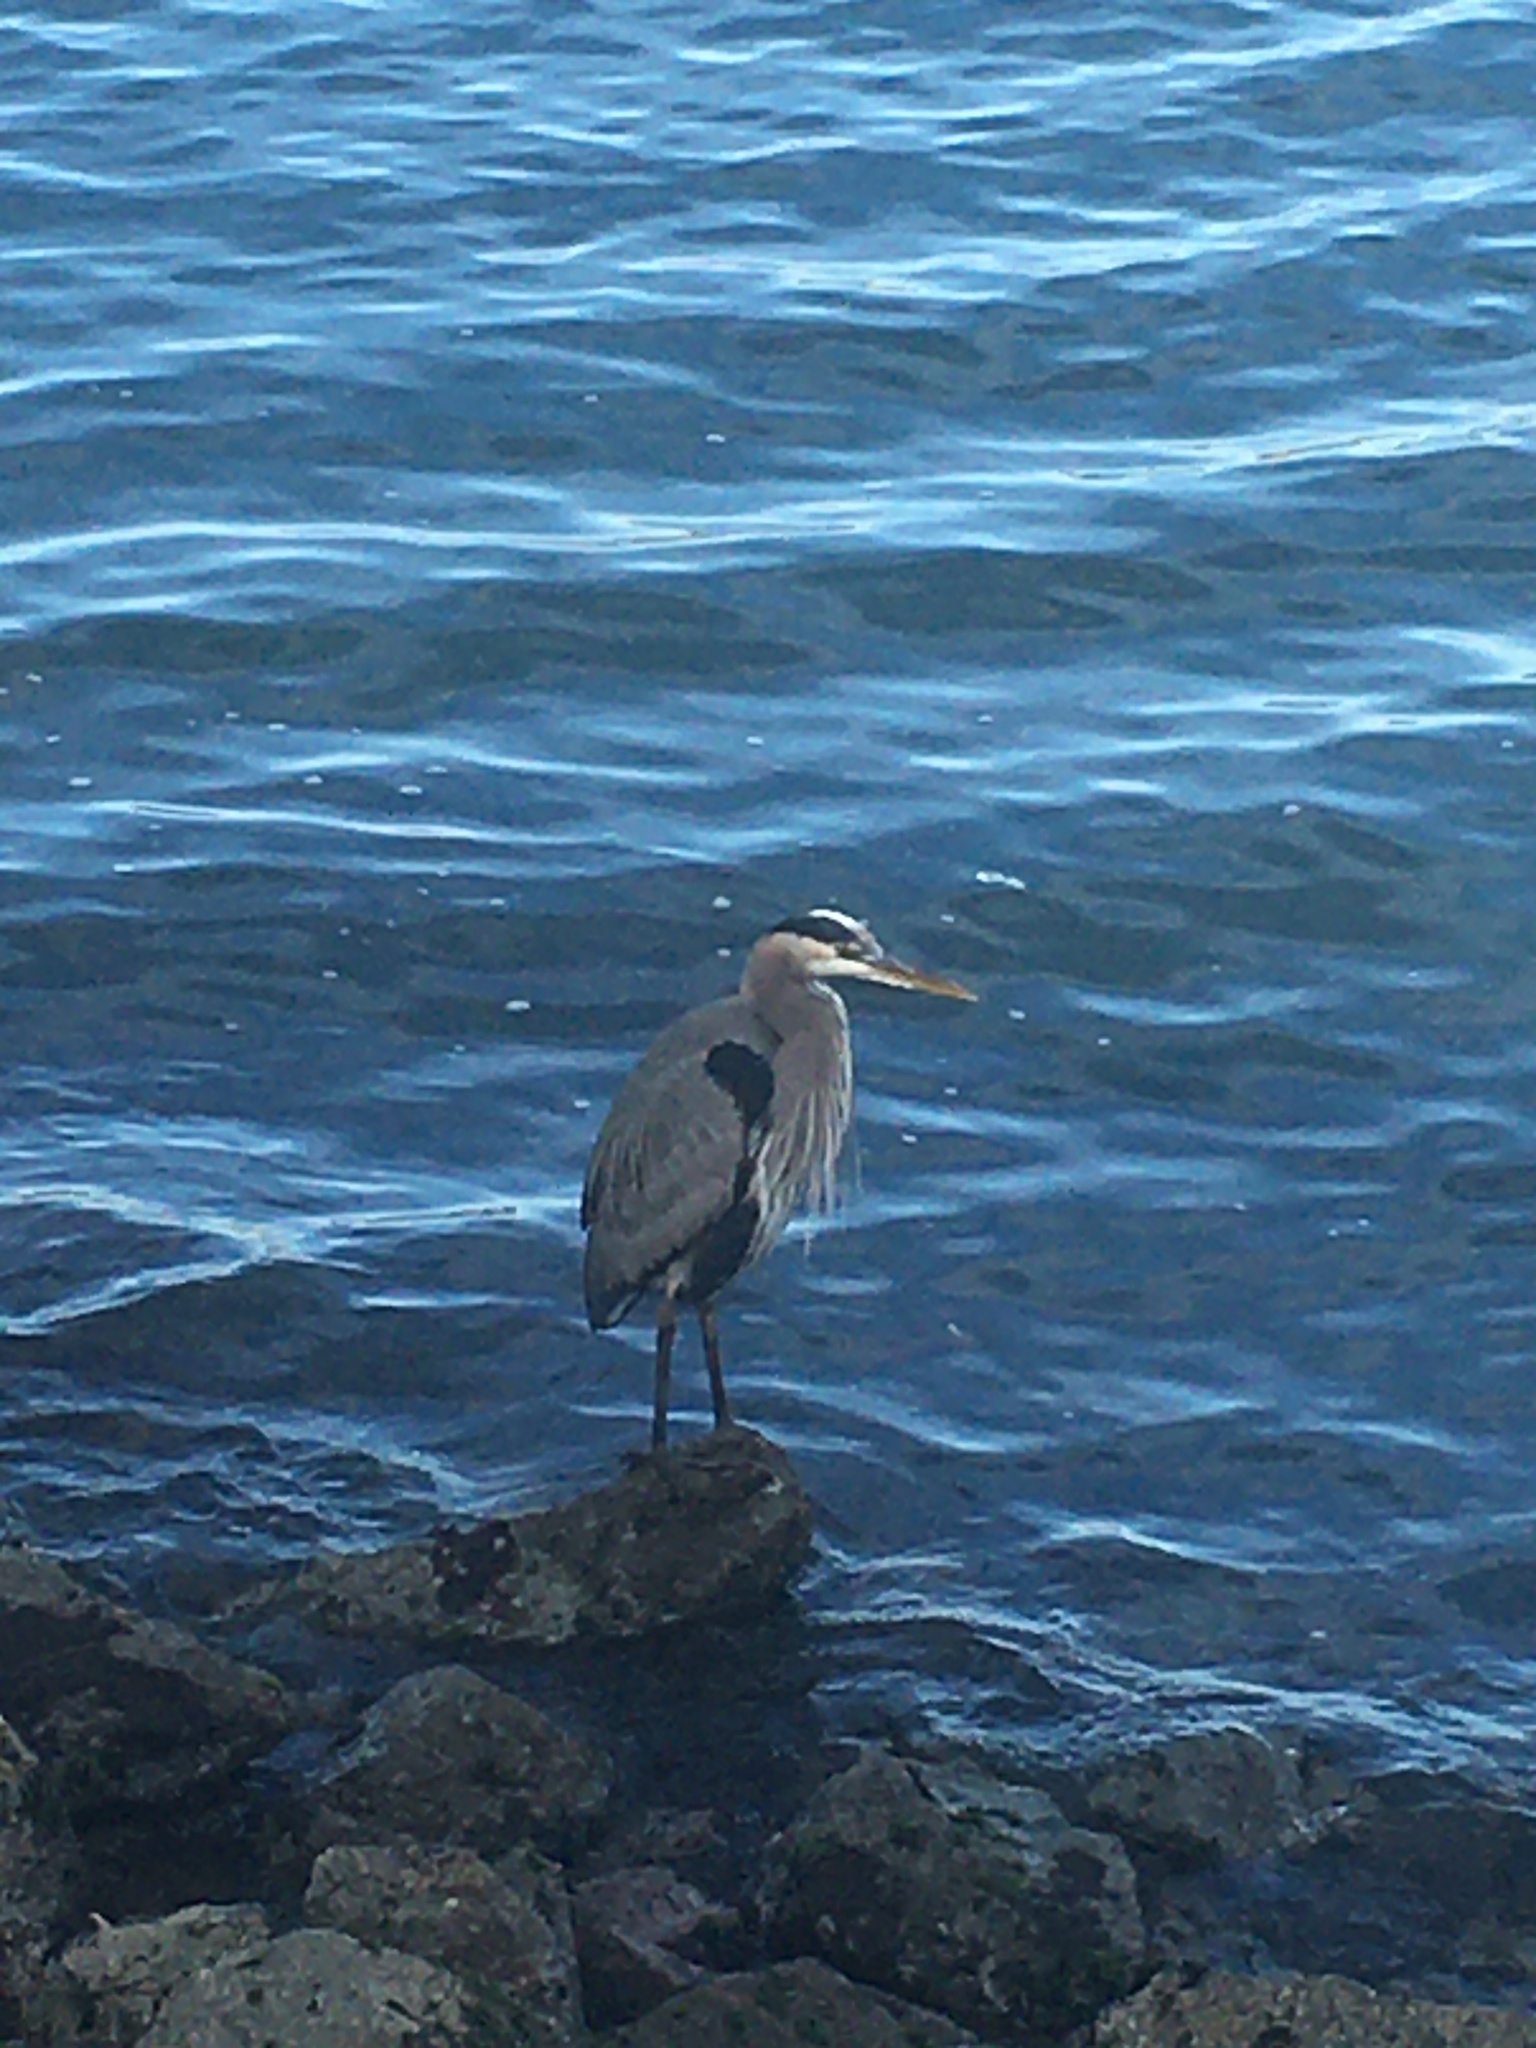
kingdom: Animalia
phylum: Chordata
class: Aves
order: Pelecaniformes
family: Ardeidae
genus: Ardea
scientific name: Ardea herodias
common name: Great blue heron
